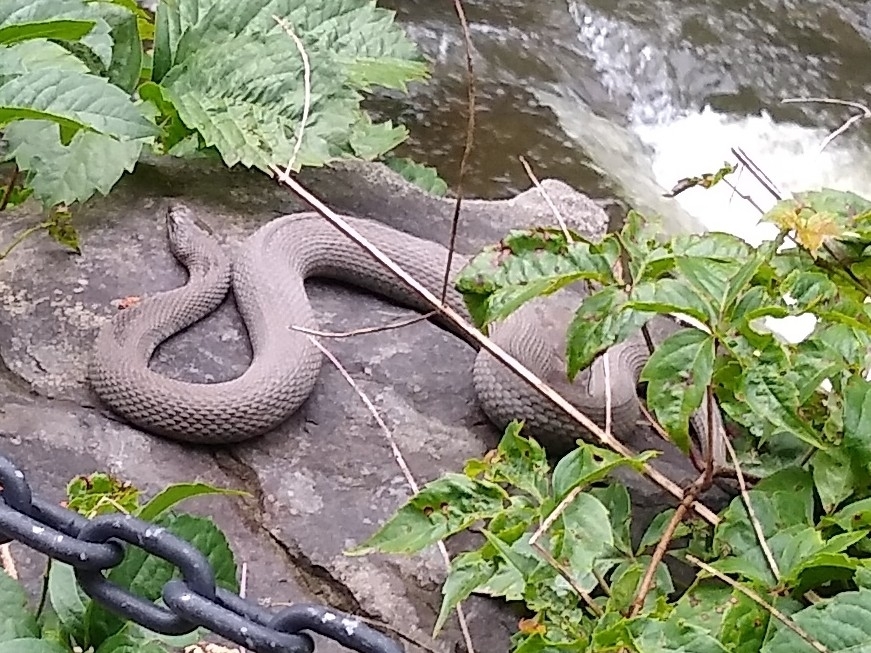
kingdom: Animalia
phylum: Chordata
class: Squamata
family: Colubridae
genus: Nerodia
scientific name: Nerodia sipedon
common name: Northern water snake
